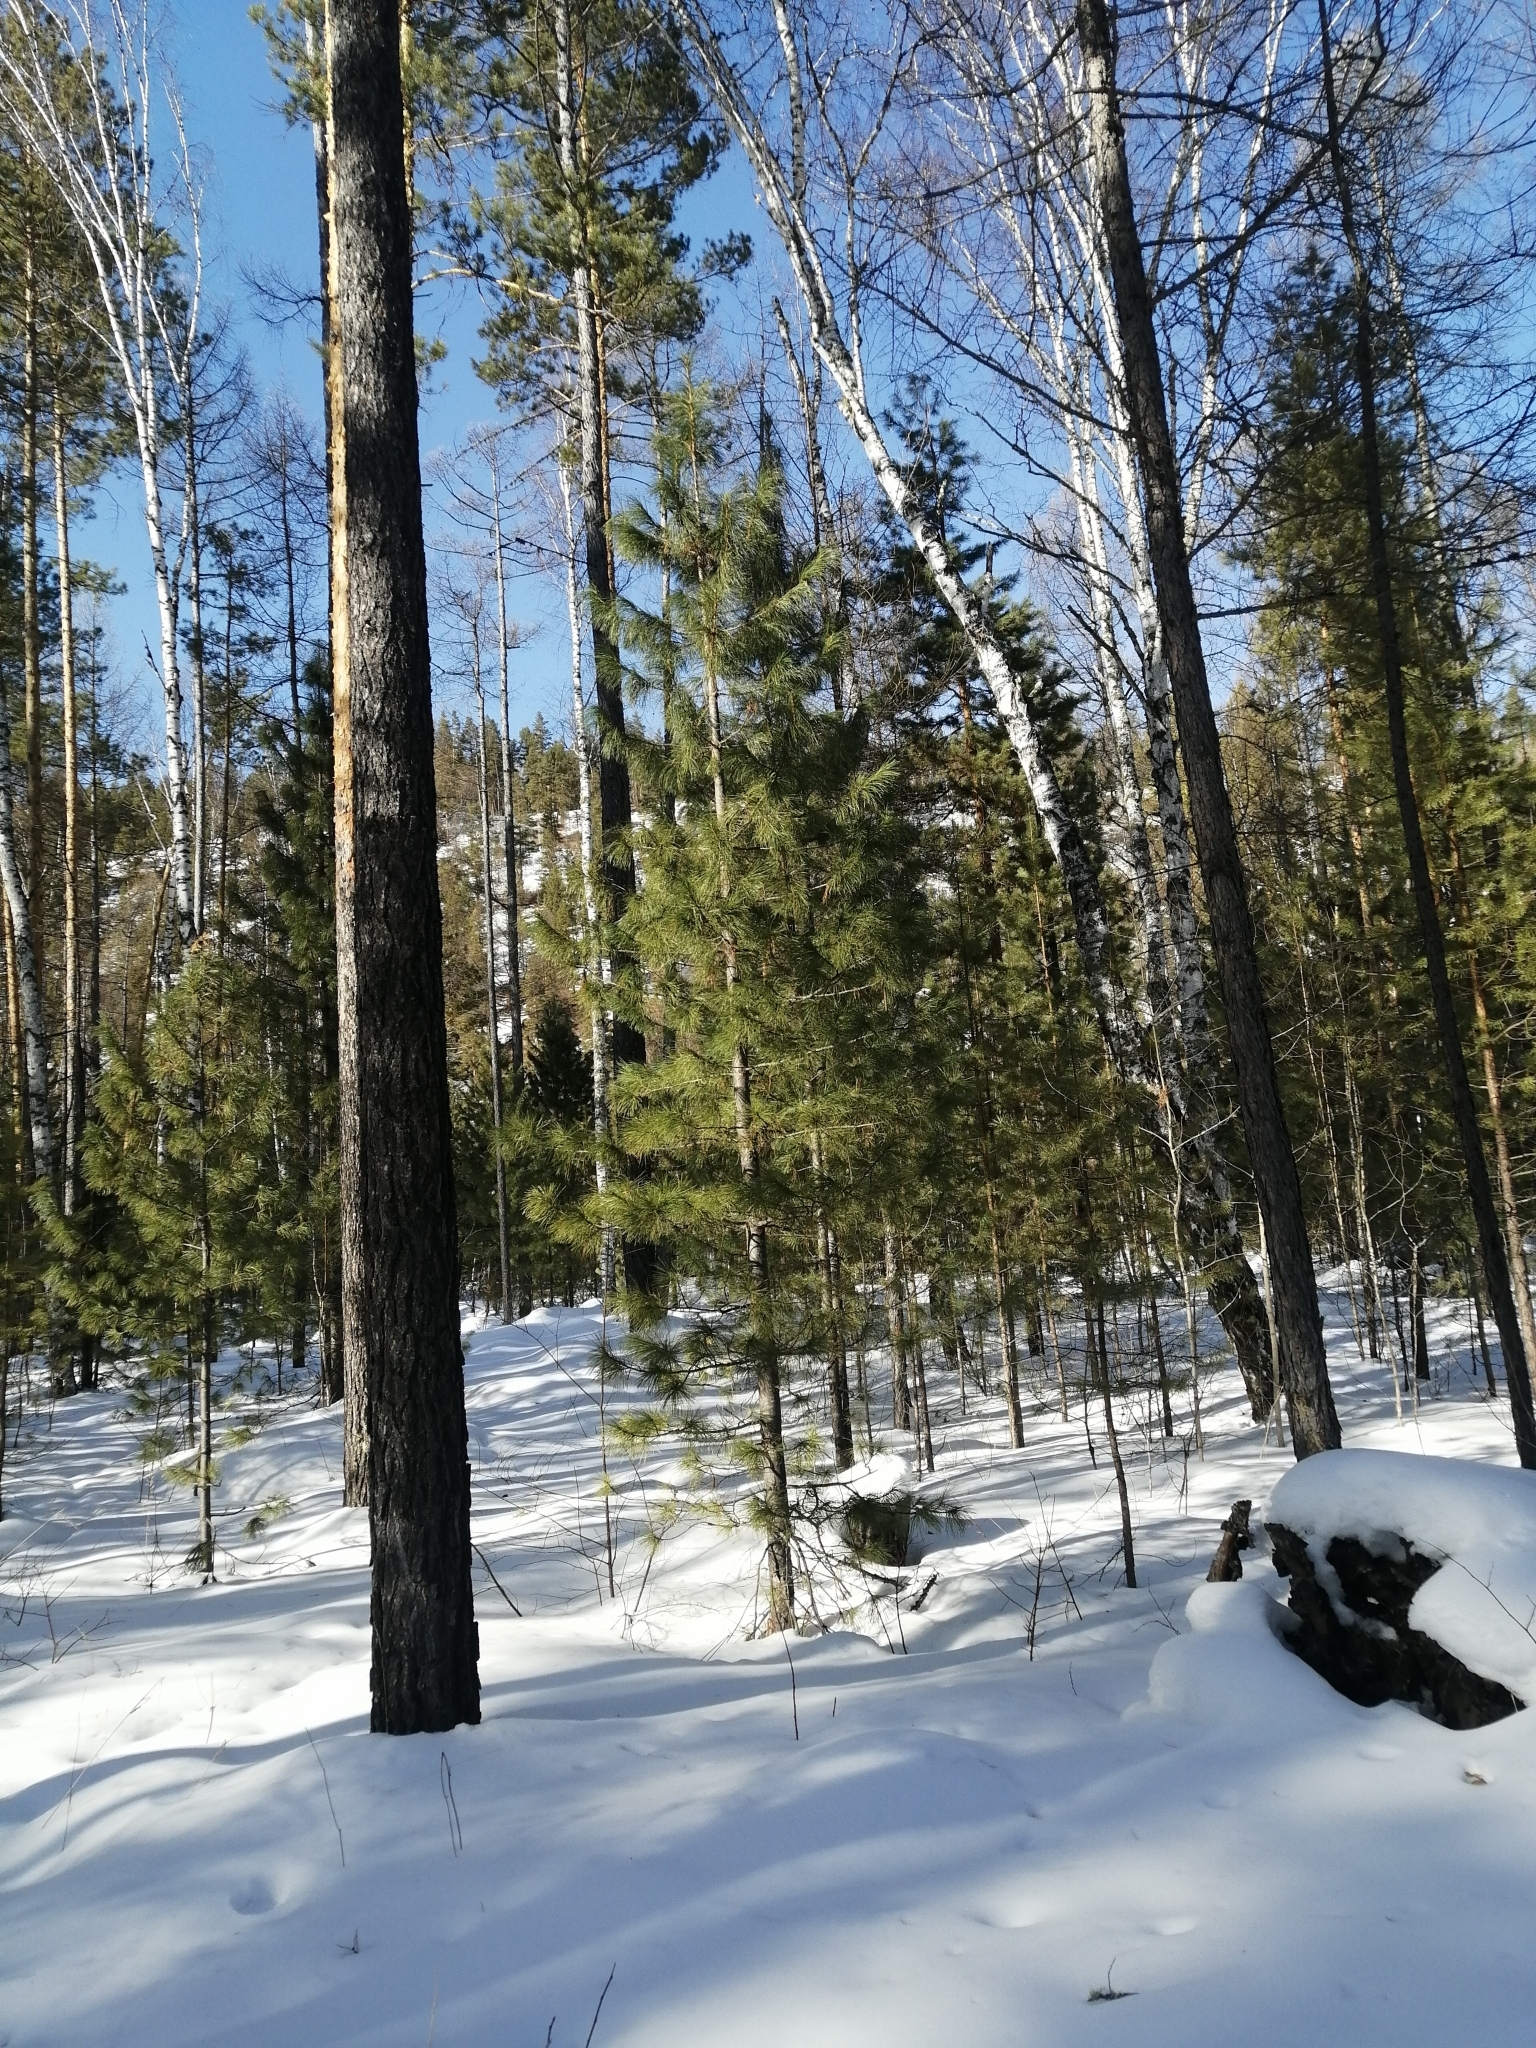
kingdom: Plantae
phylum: Tracheophyta
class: Pinopsida
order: Pinales
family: Pinaceae
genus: Pinus
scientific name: Pinus sibirica
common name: Siberian pine
